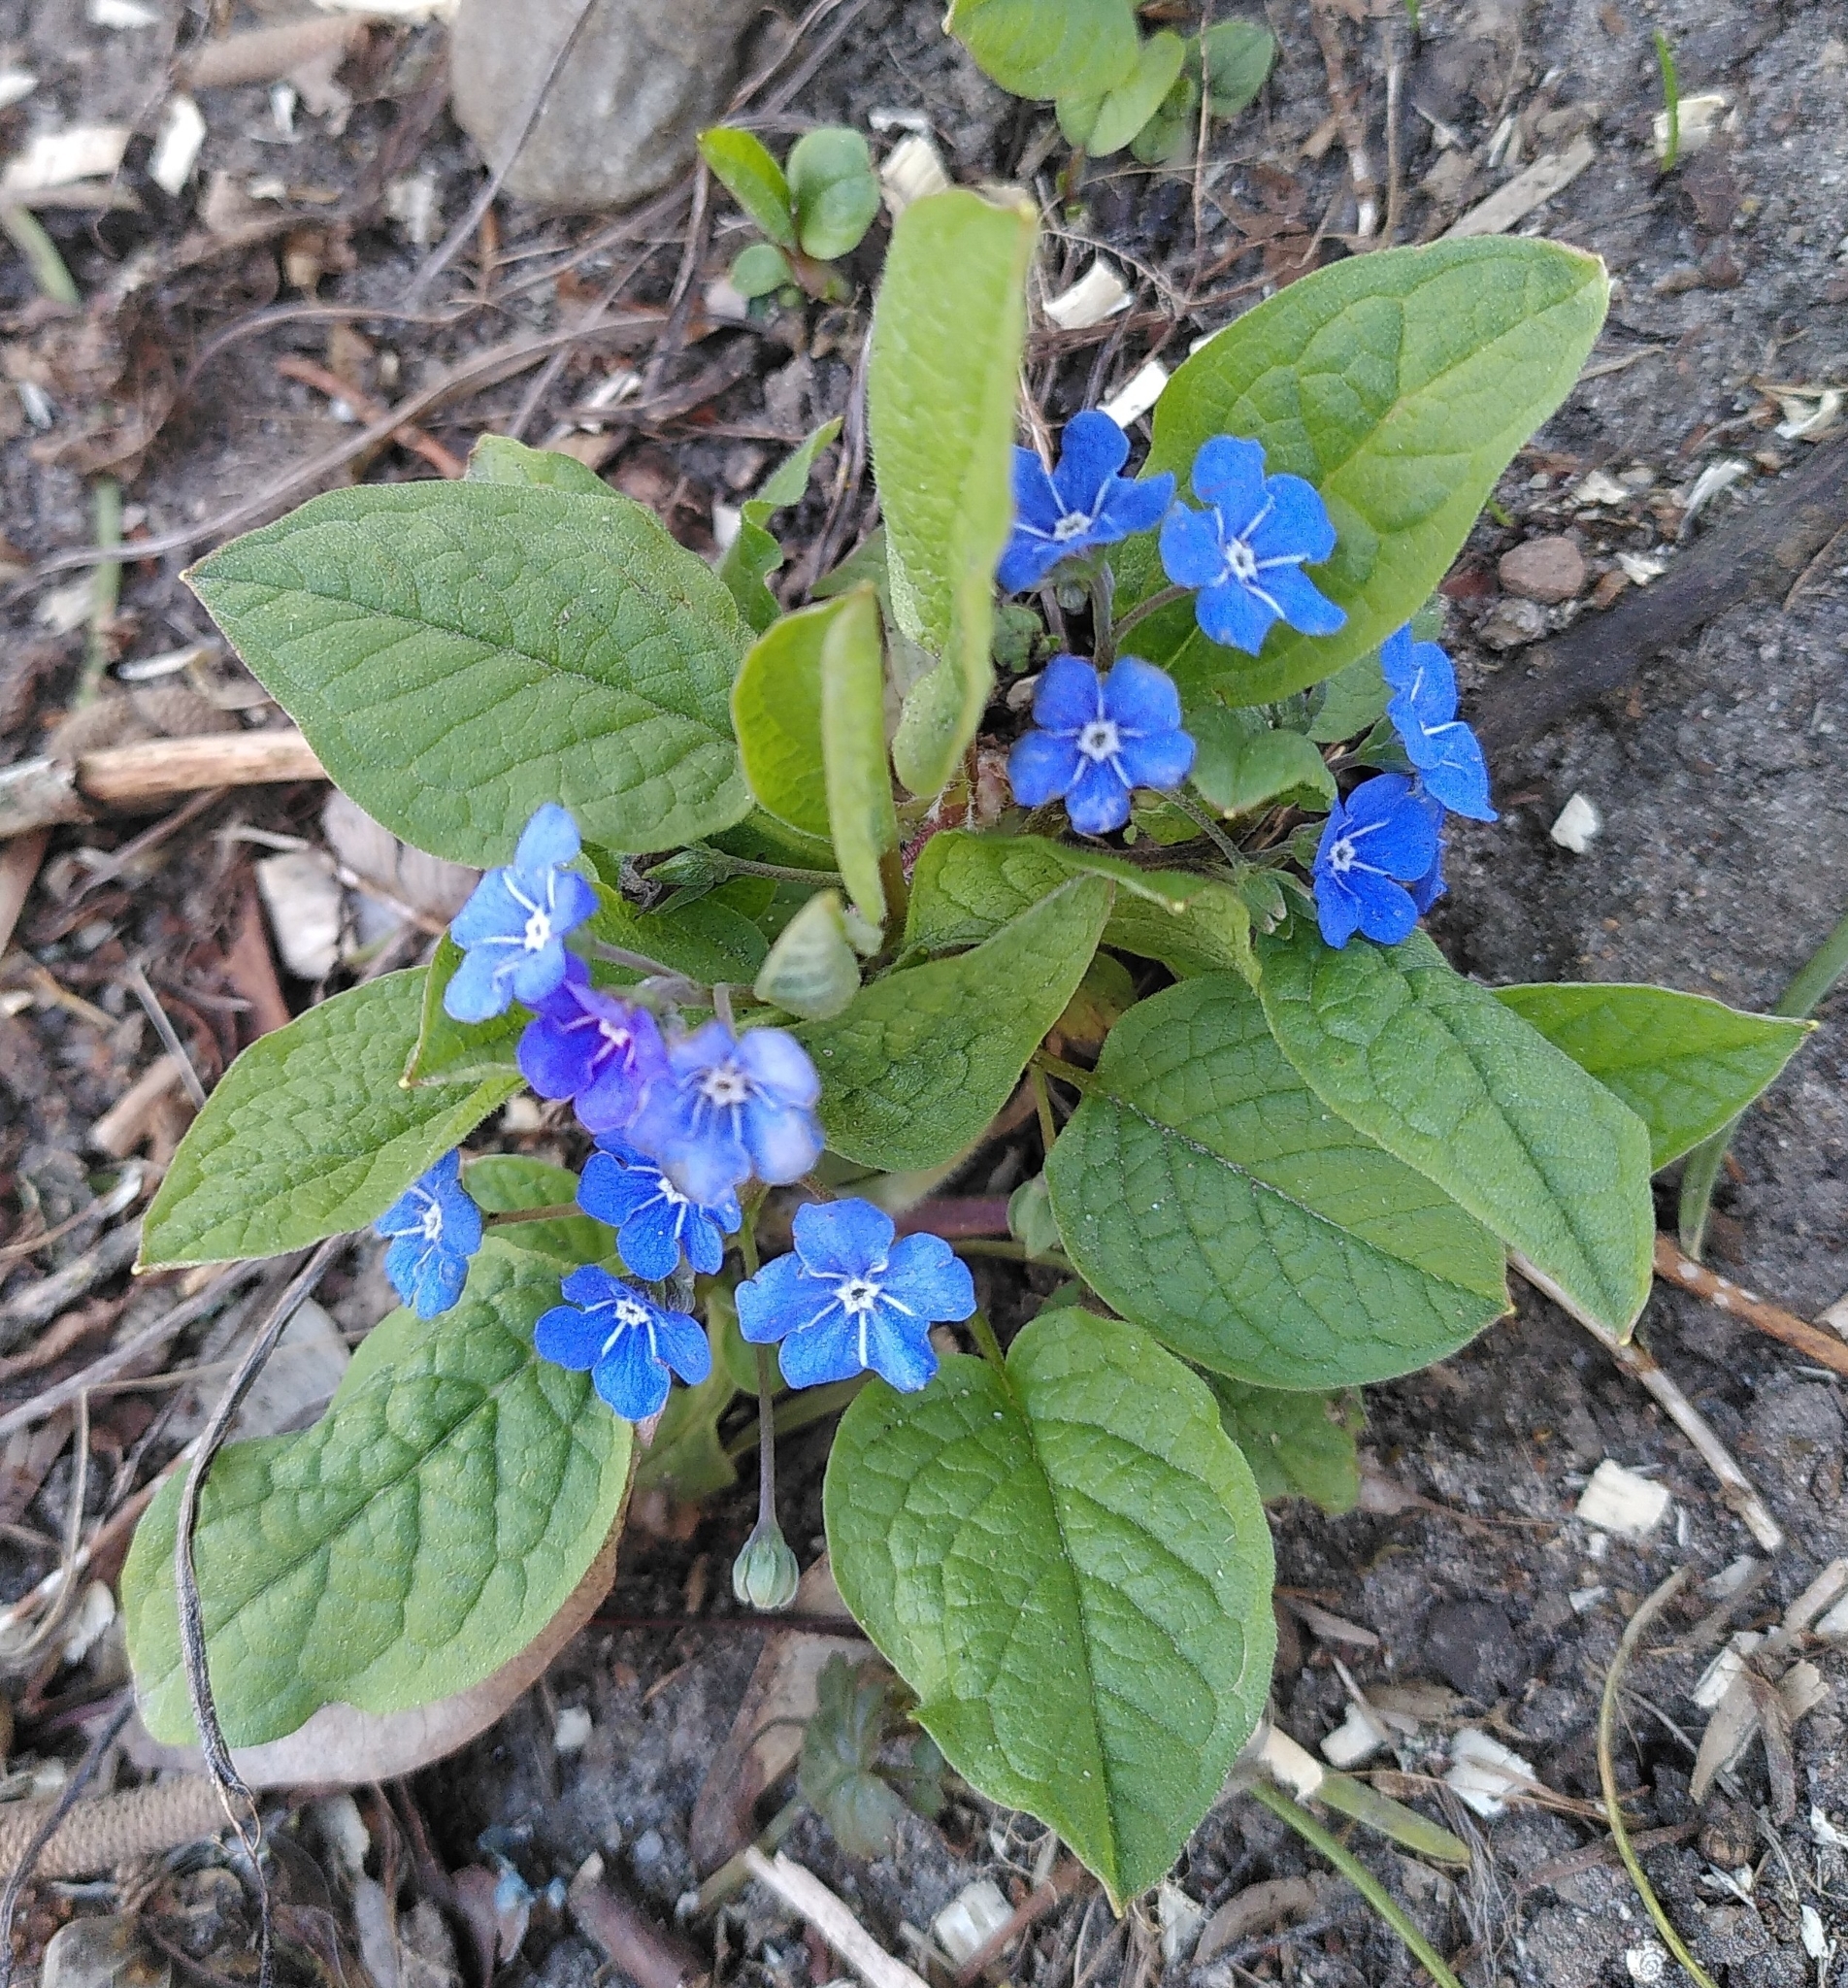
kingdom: Plantae
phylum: Tracheophyta
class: Magnoliopsida
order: Boraginales
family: Boraginaceae
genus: Omphalodes
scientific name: Omphalodes verna
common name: Blue-eyed-mary
